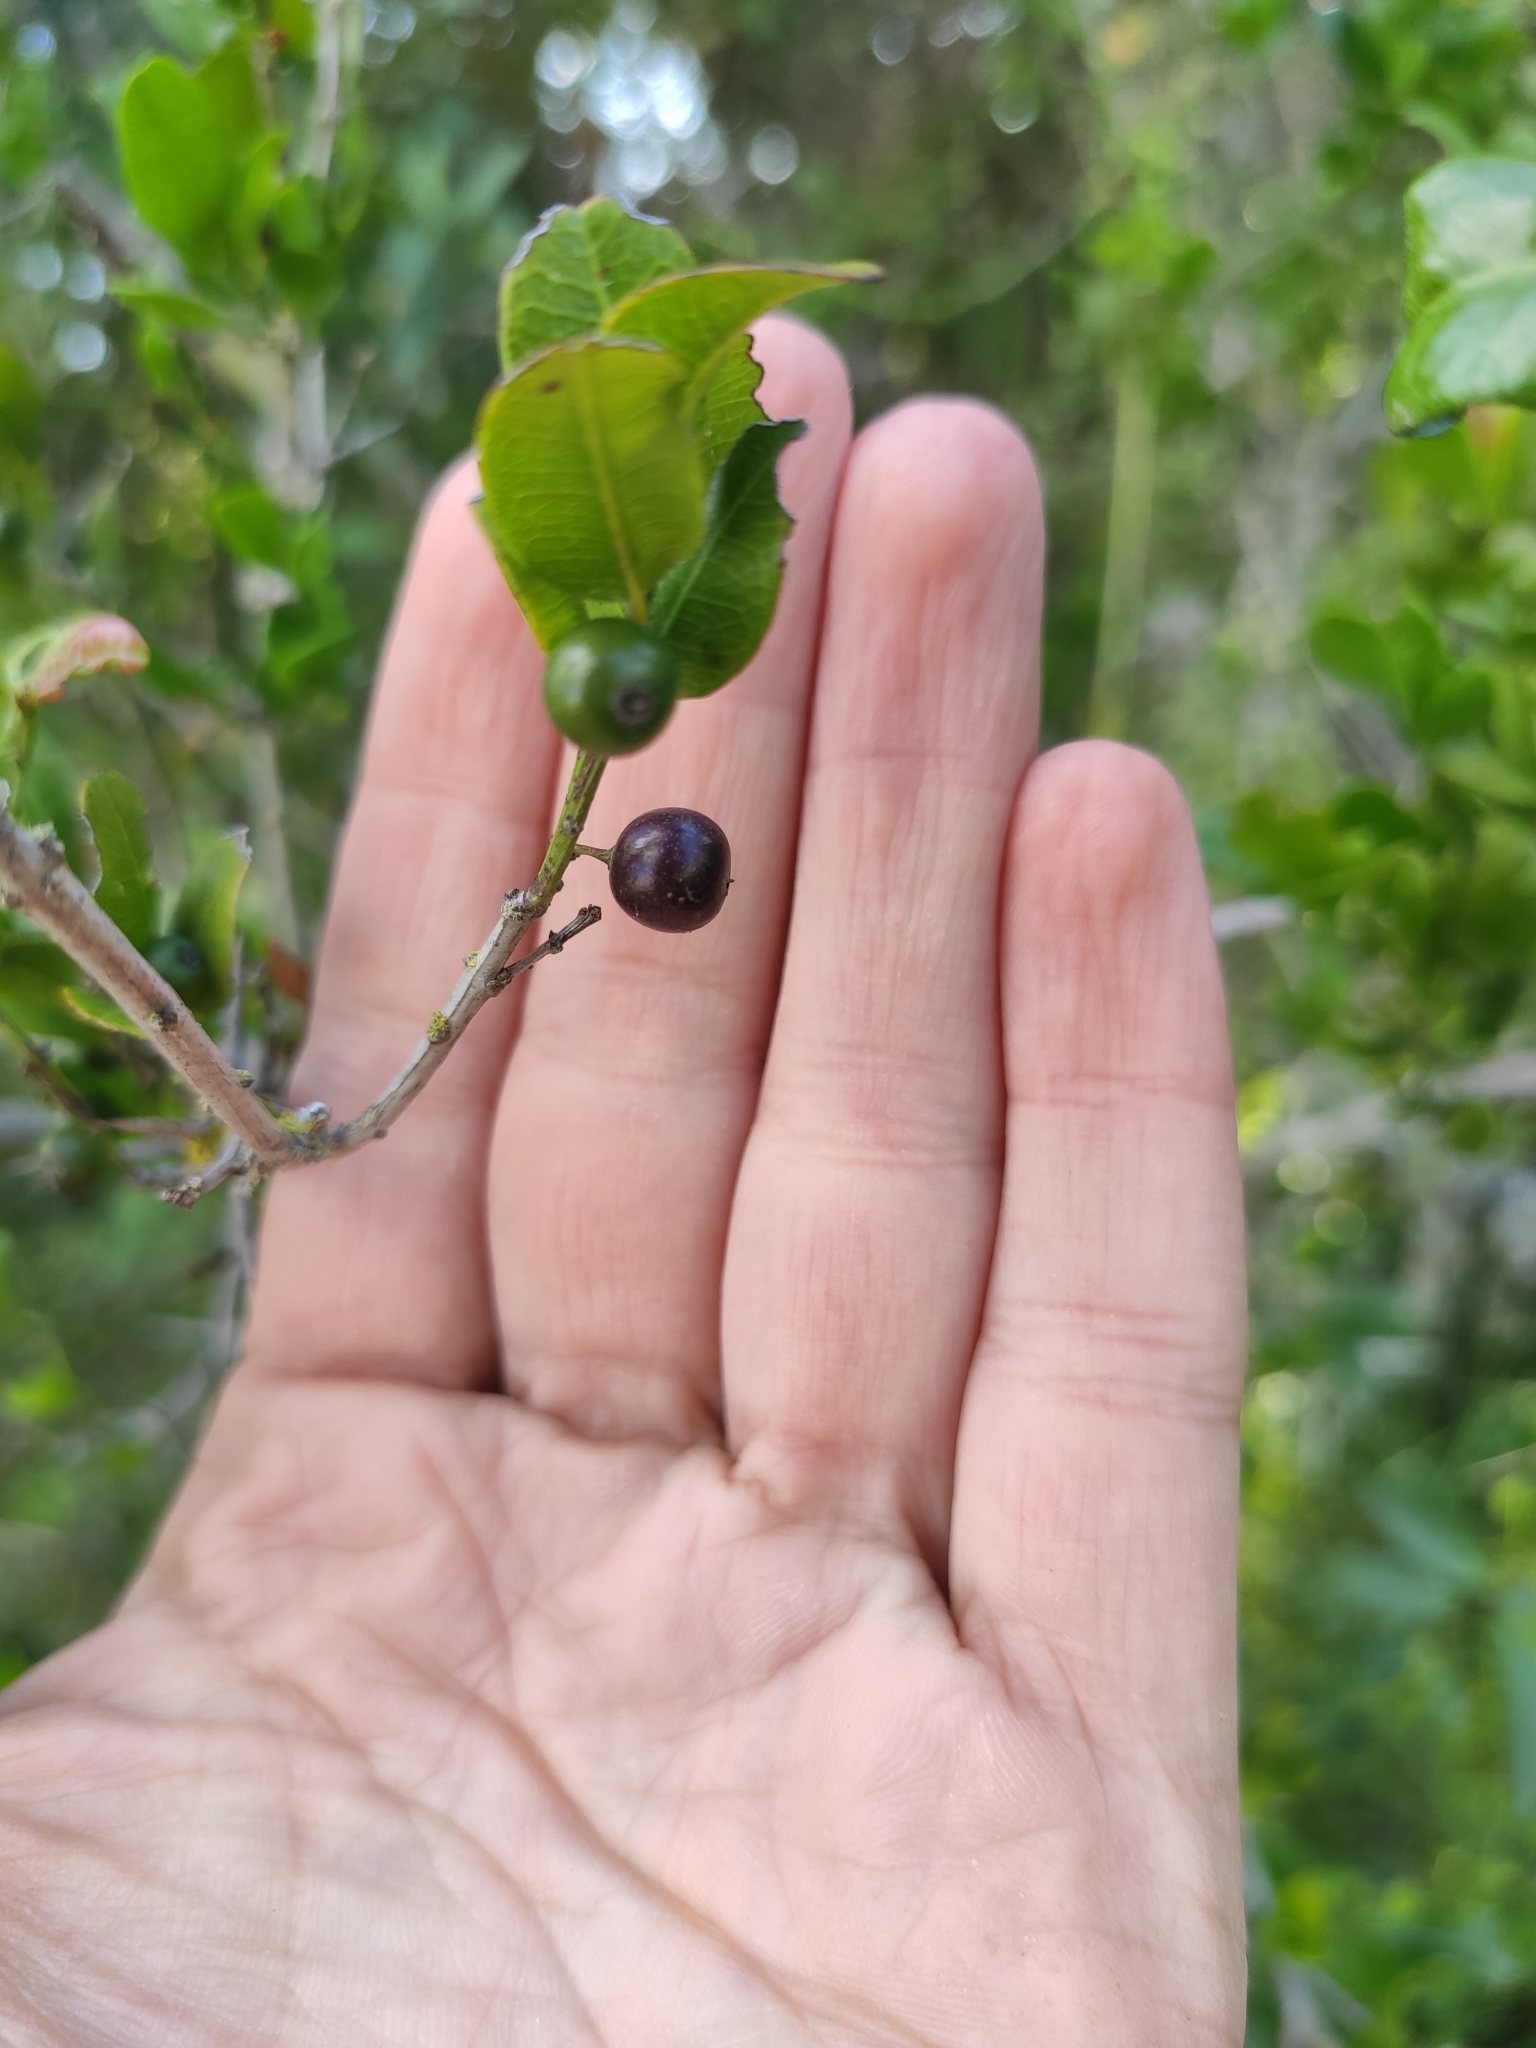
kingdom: Plantae
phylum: Tracheophyta
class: Magnoliopsida
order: Rosales
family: Rhamnaceae
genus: Scutia
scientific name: Scutia buxifolia
